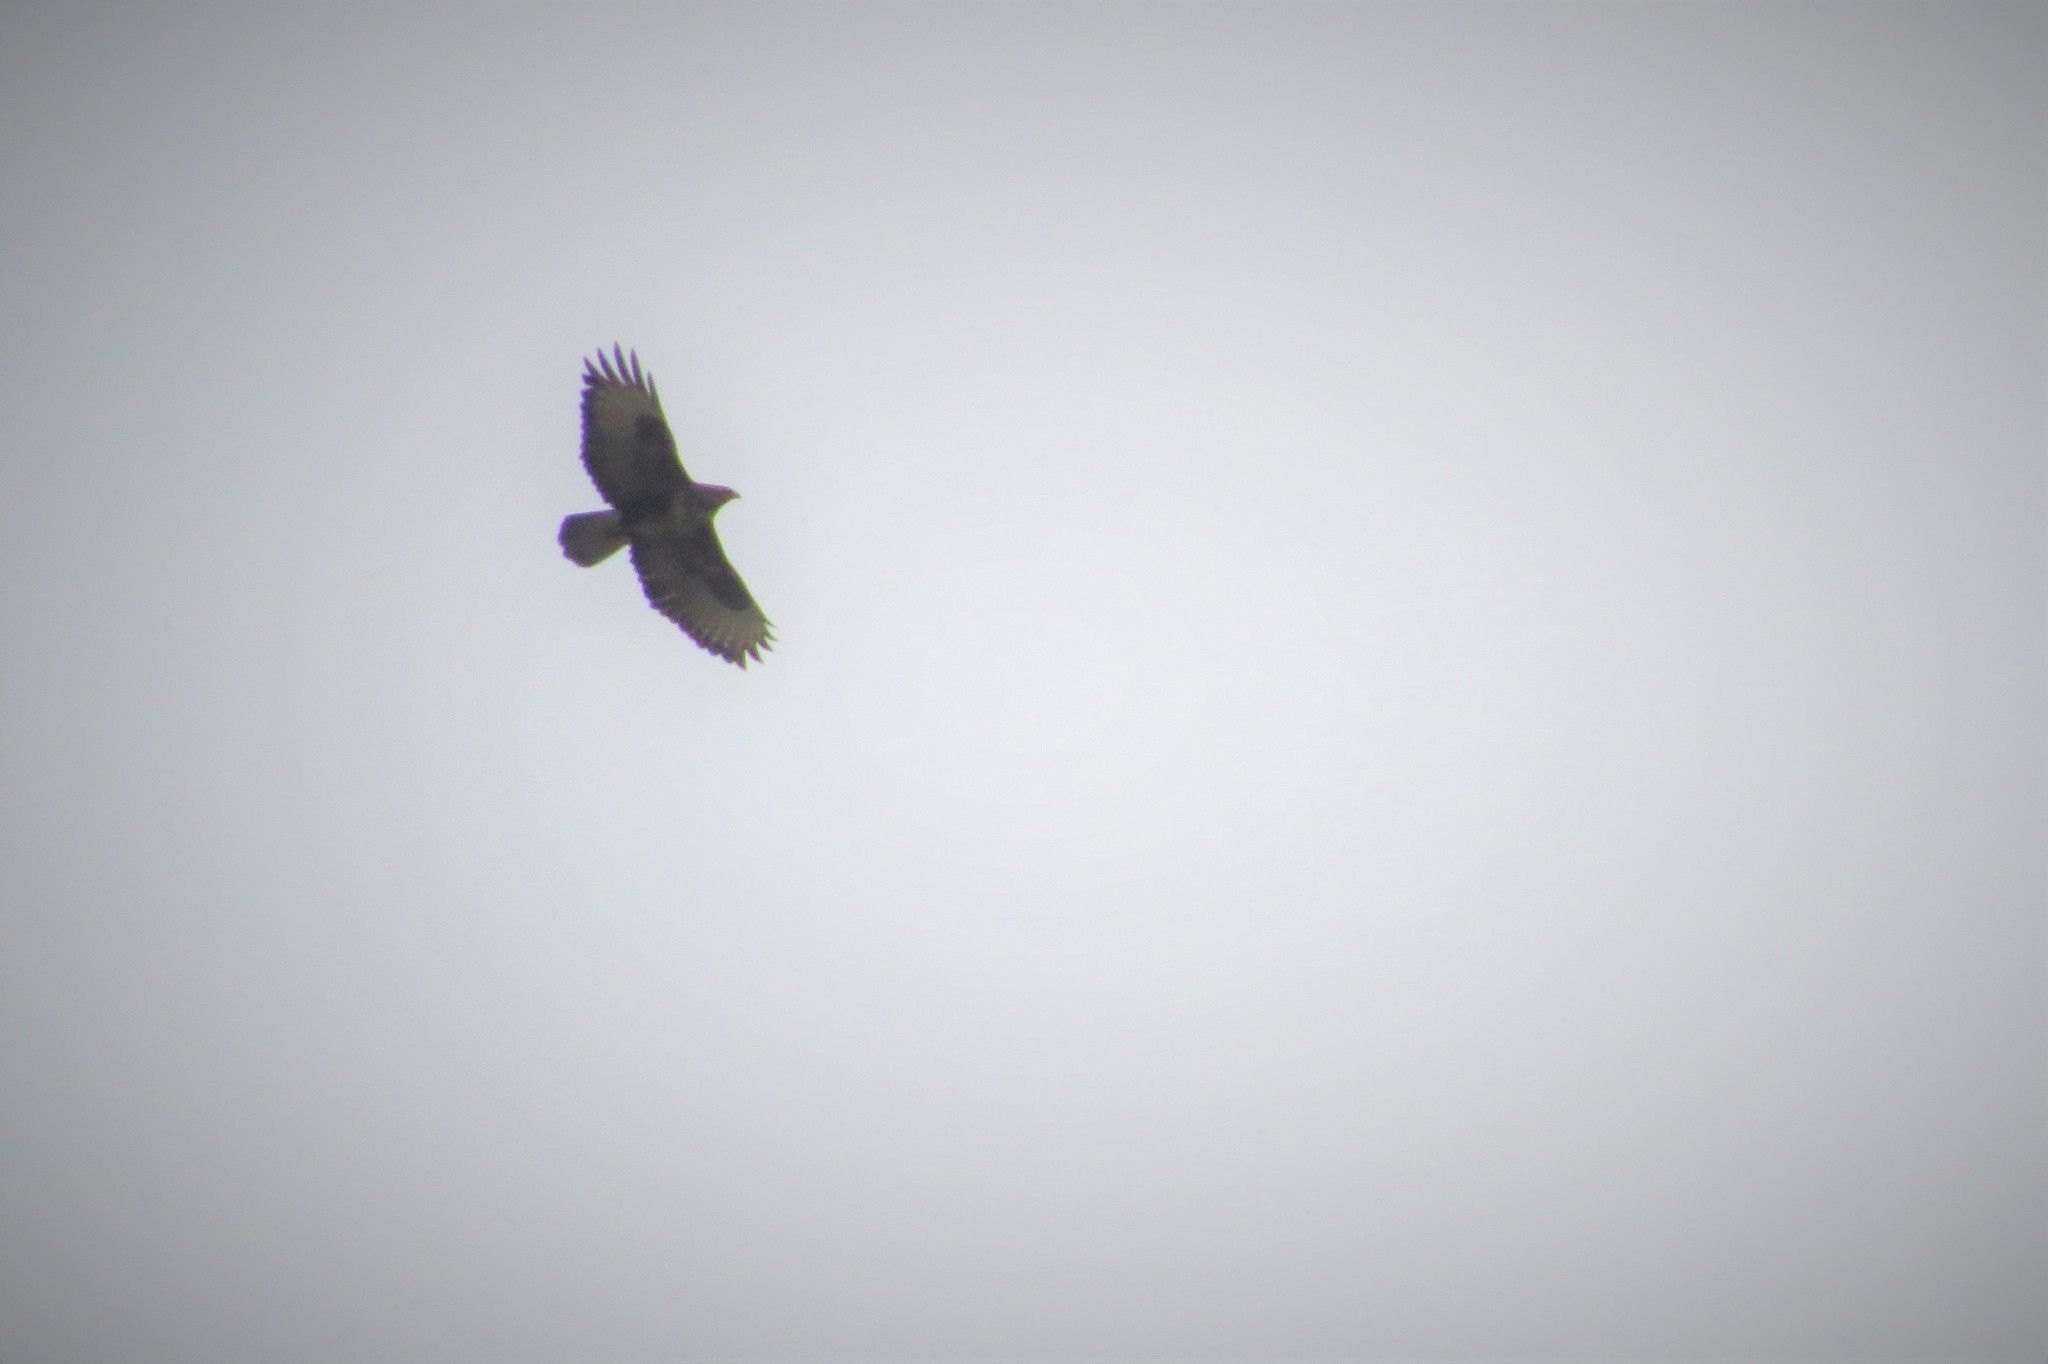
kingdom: Animalia
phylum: Chordata
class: Aves
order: Accipitriformes
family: Accipitridae
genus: Buteo
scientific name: Buteo buteo
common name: Common buzzard
